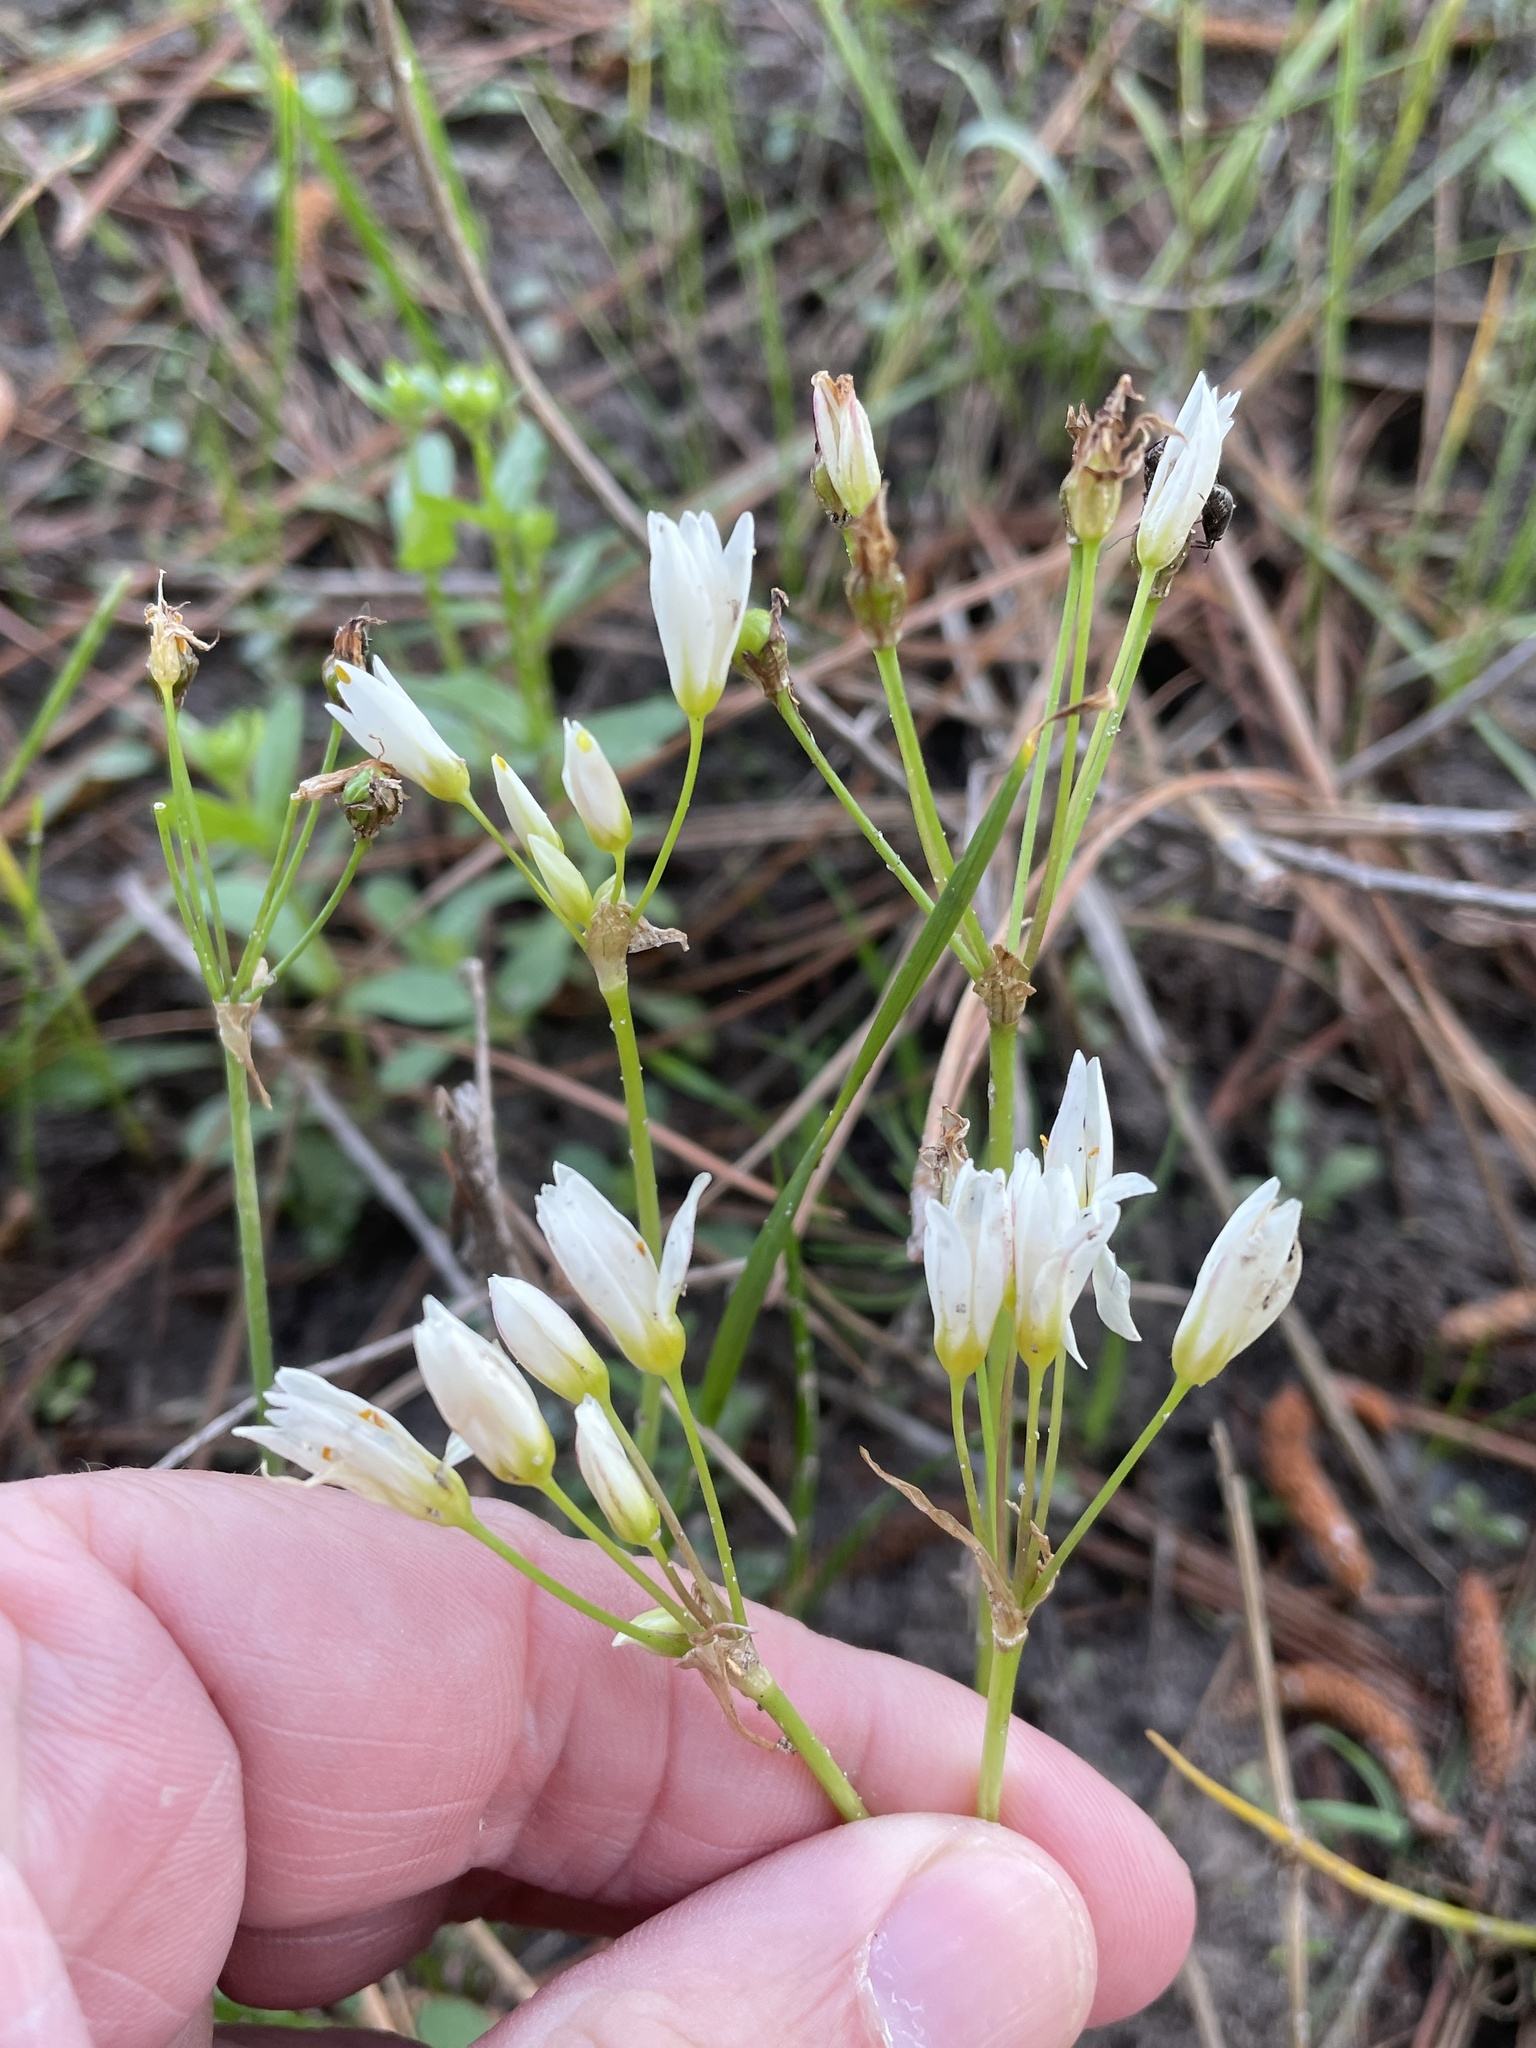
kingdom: Plantae
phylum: Tracheophyta
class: Liliopsida
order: Asparagales
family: Amaryllidaceae
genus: Nothoscordum
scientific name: Nothoscordum bivalve
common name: Crow-poison
